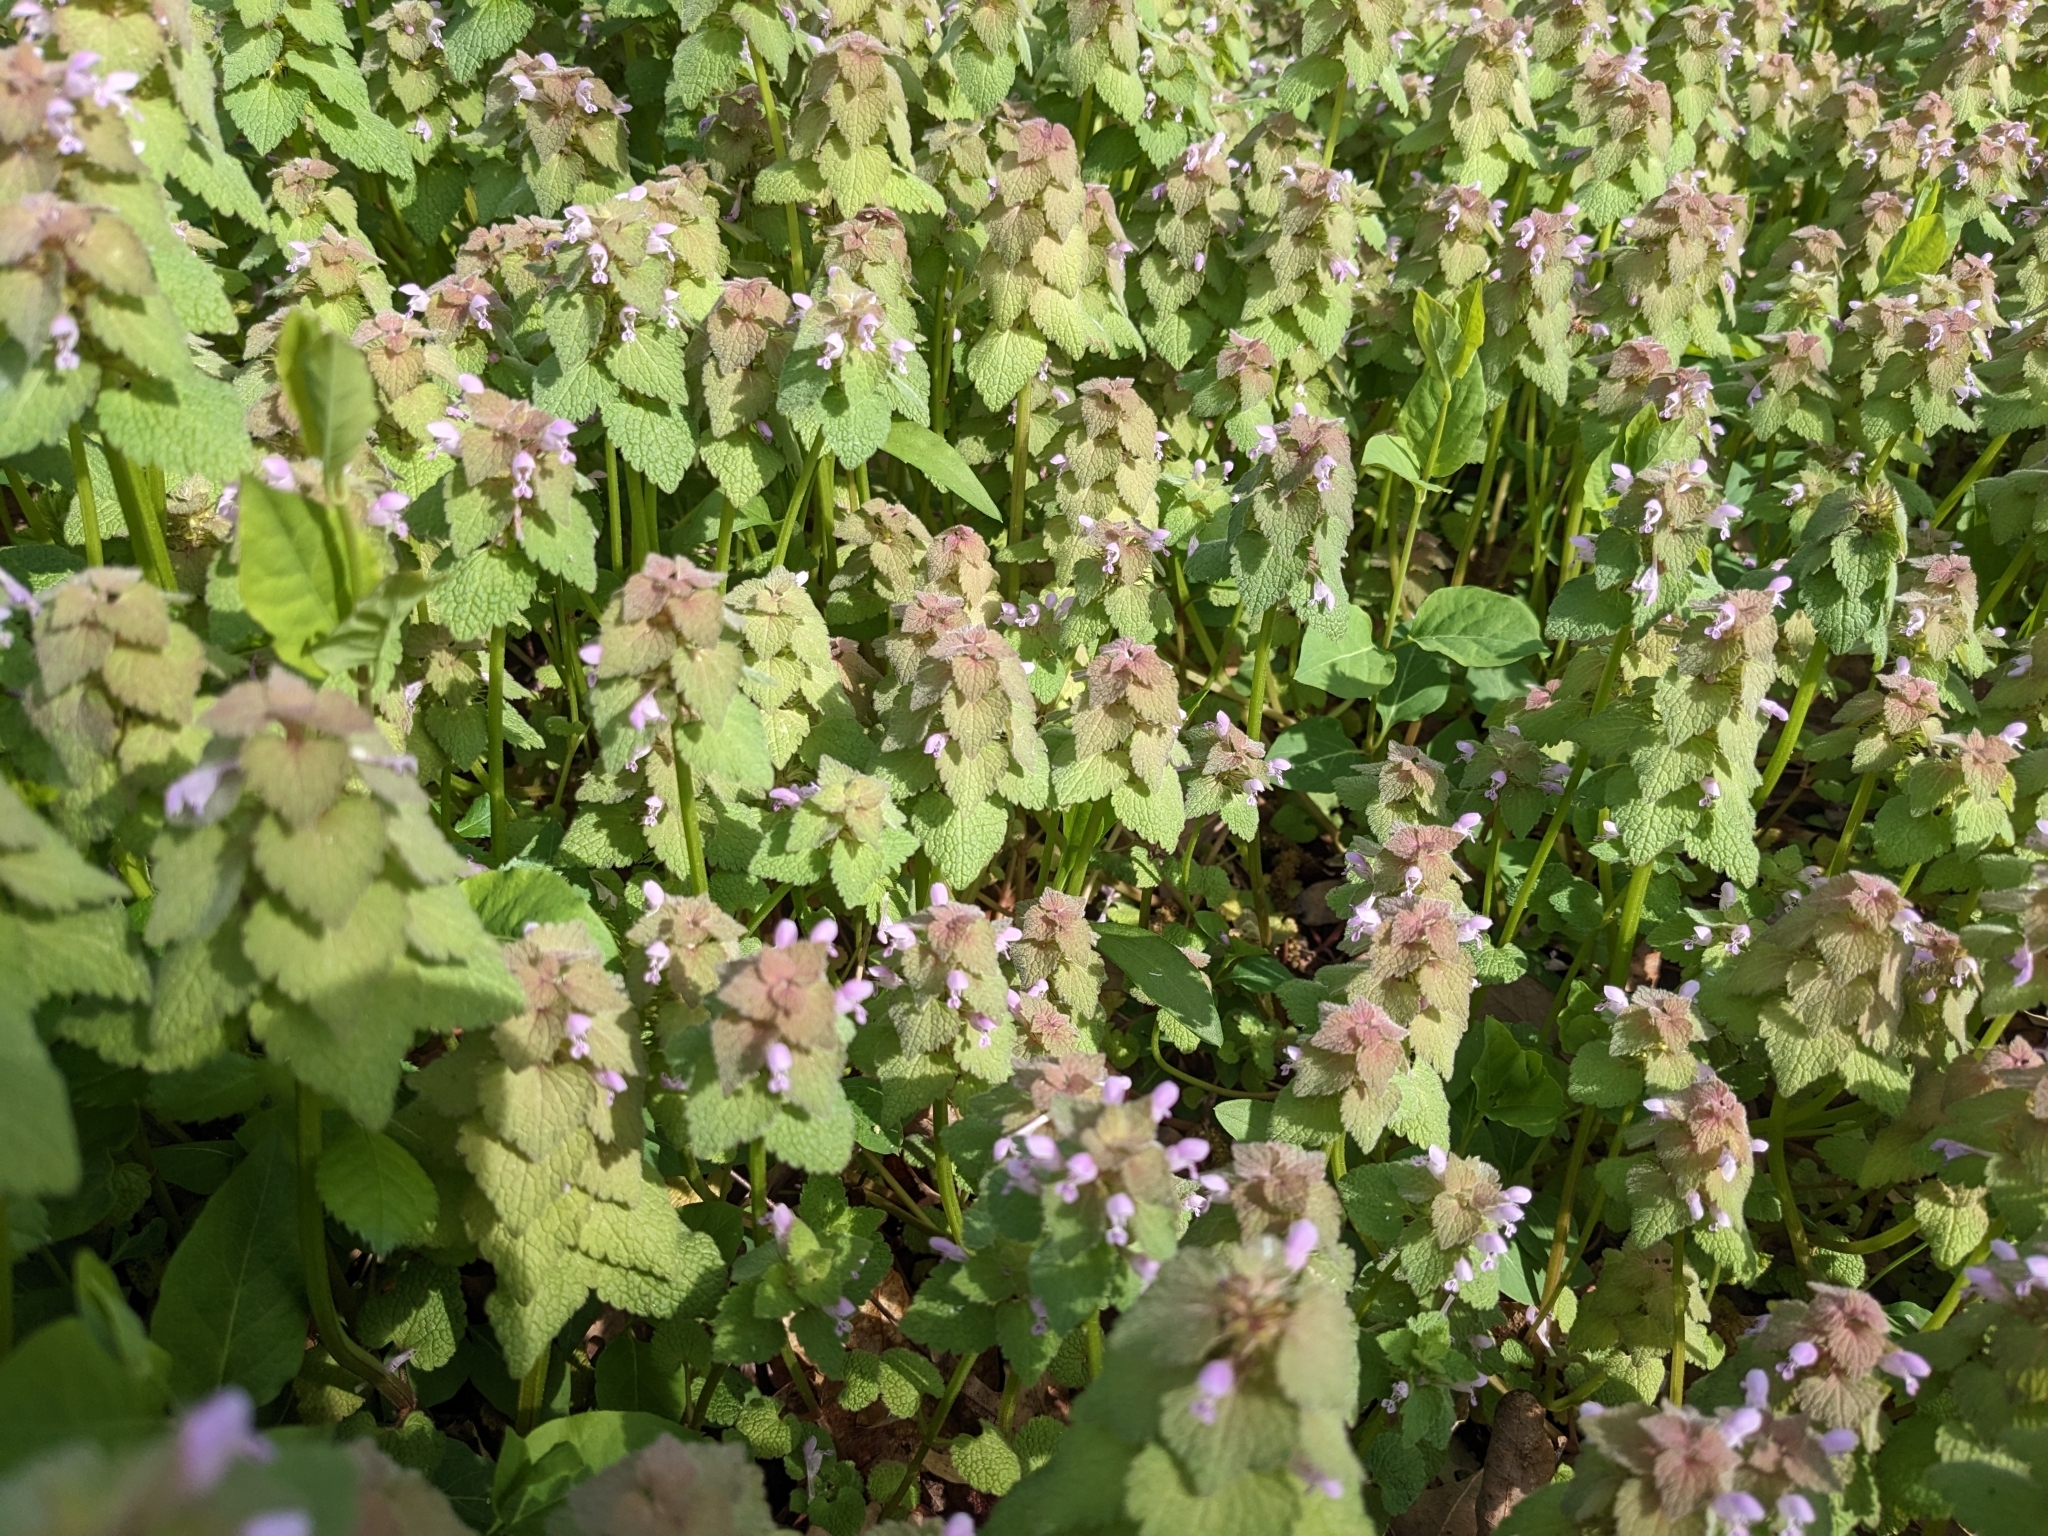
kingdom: Plantae
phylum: Tracheophyta
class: Magnoliopsida
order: Lamiales
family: Lamiaceae
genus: Lamium
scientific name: Lamium purpureum
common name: Red dead-nettle
